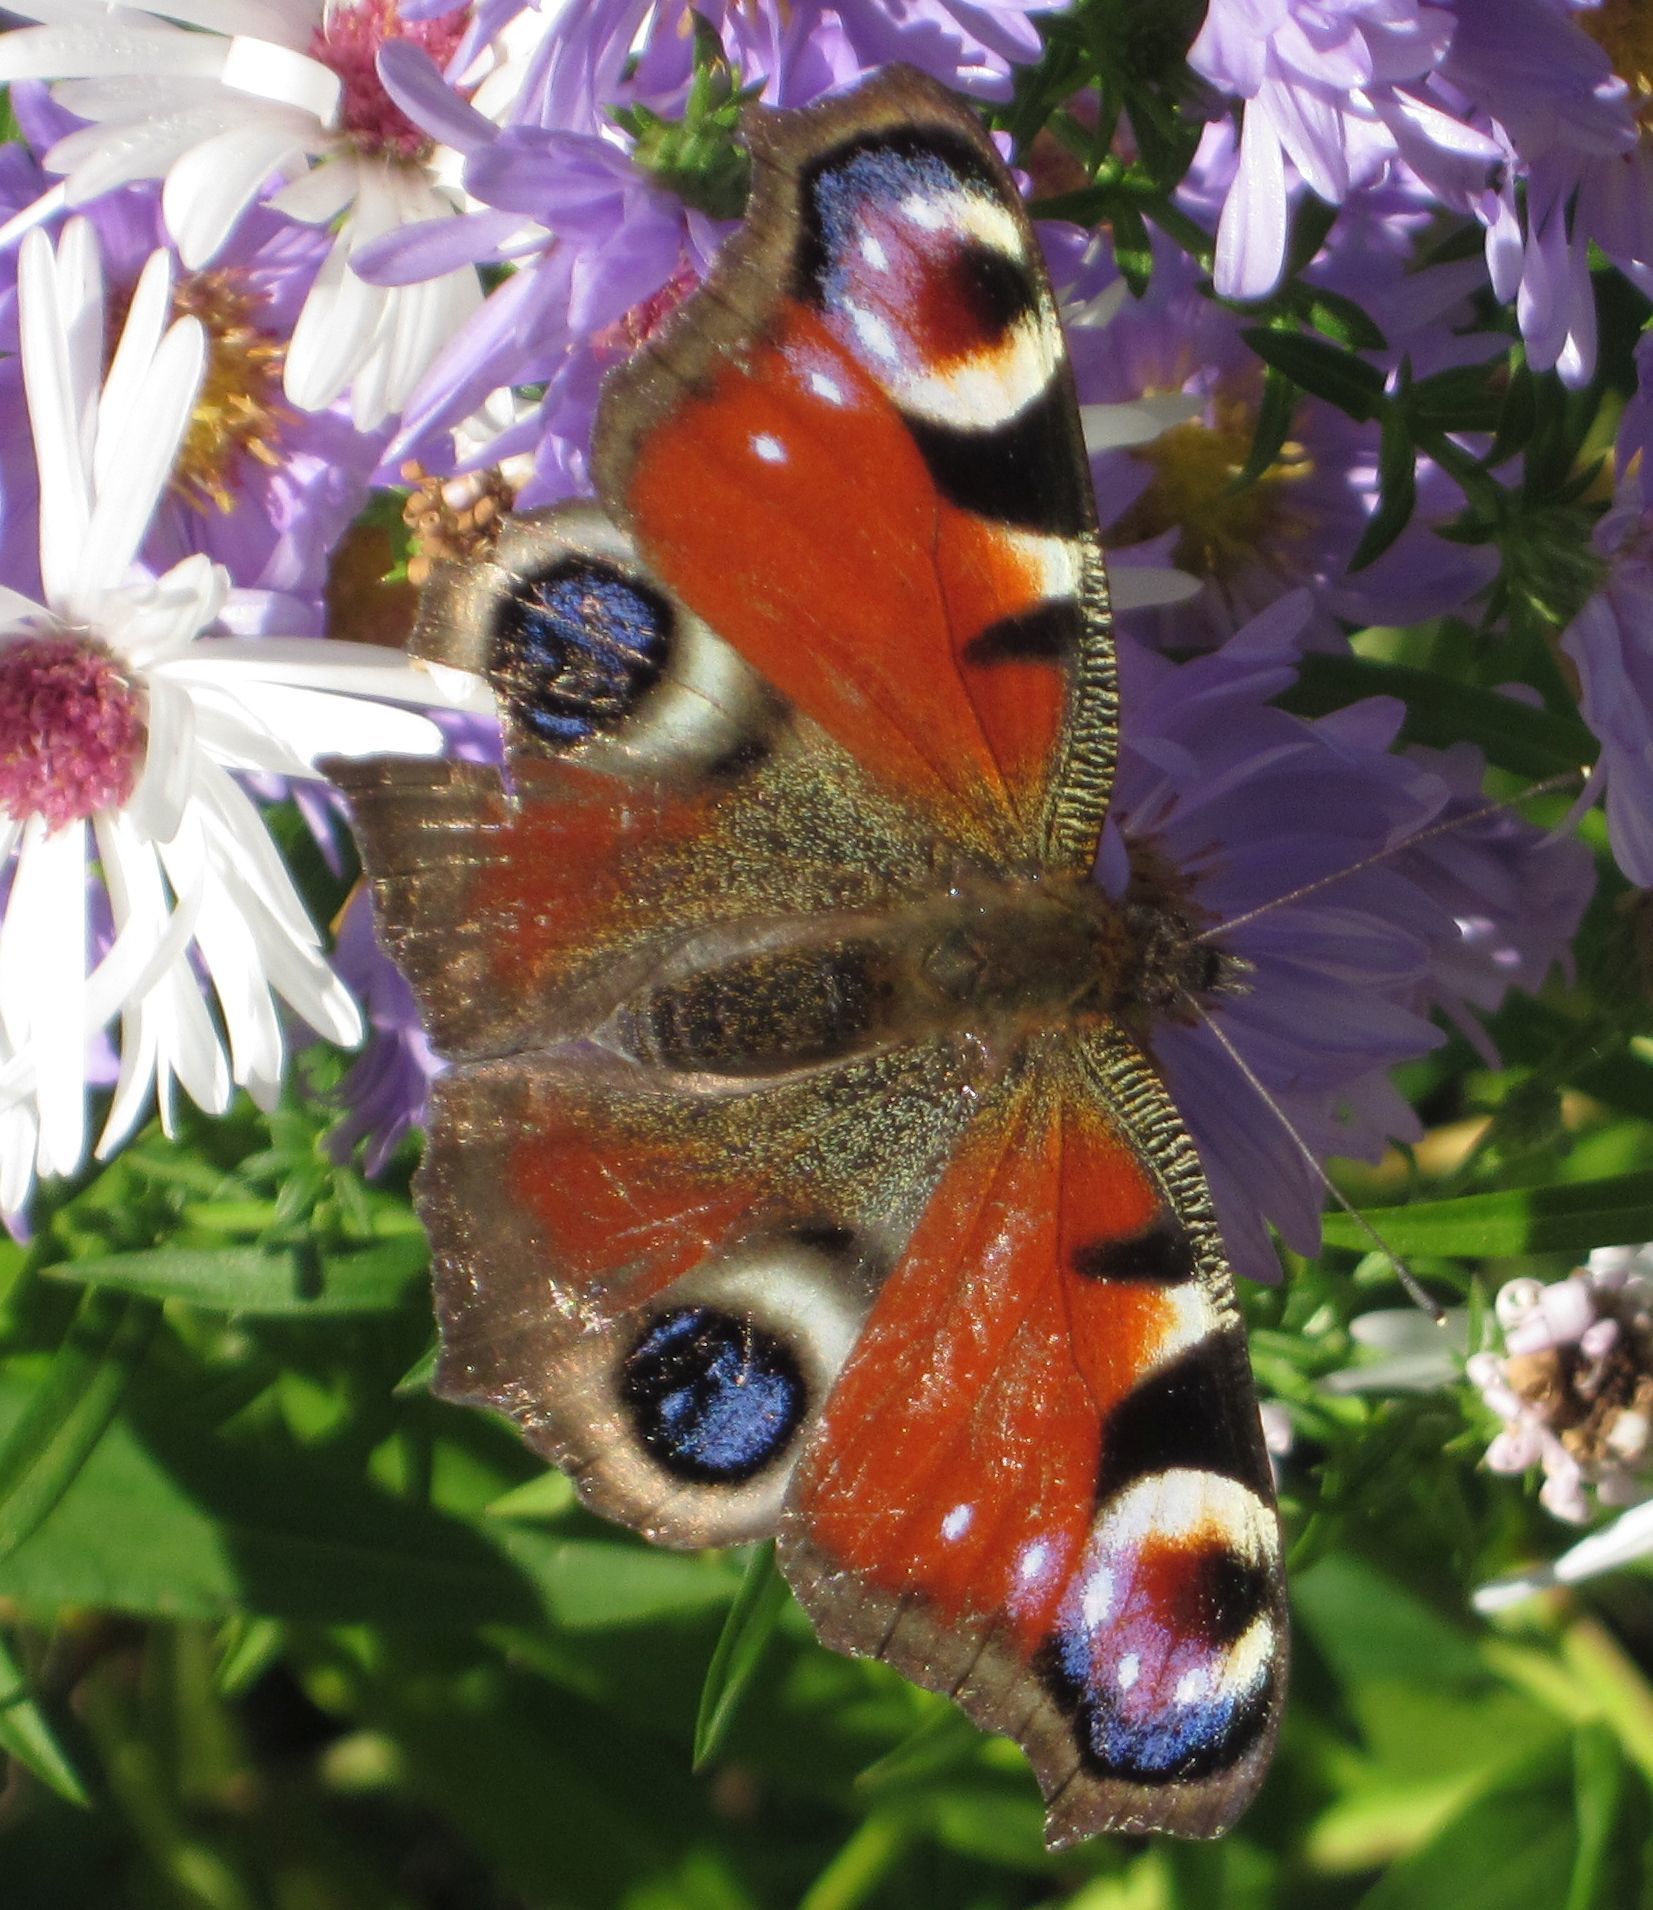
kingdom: Animalia
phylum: Arthropoda
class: Insecta
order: Lepidoptera
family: Nymphalidae
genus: Aglais
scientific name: Aglais io
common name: Peacock
